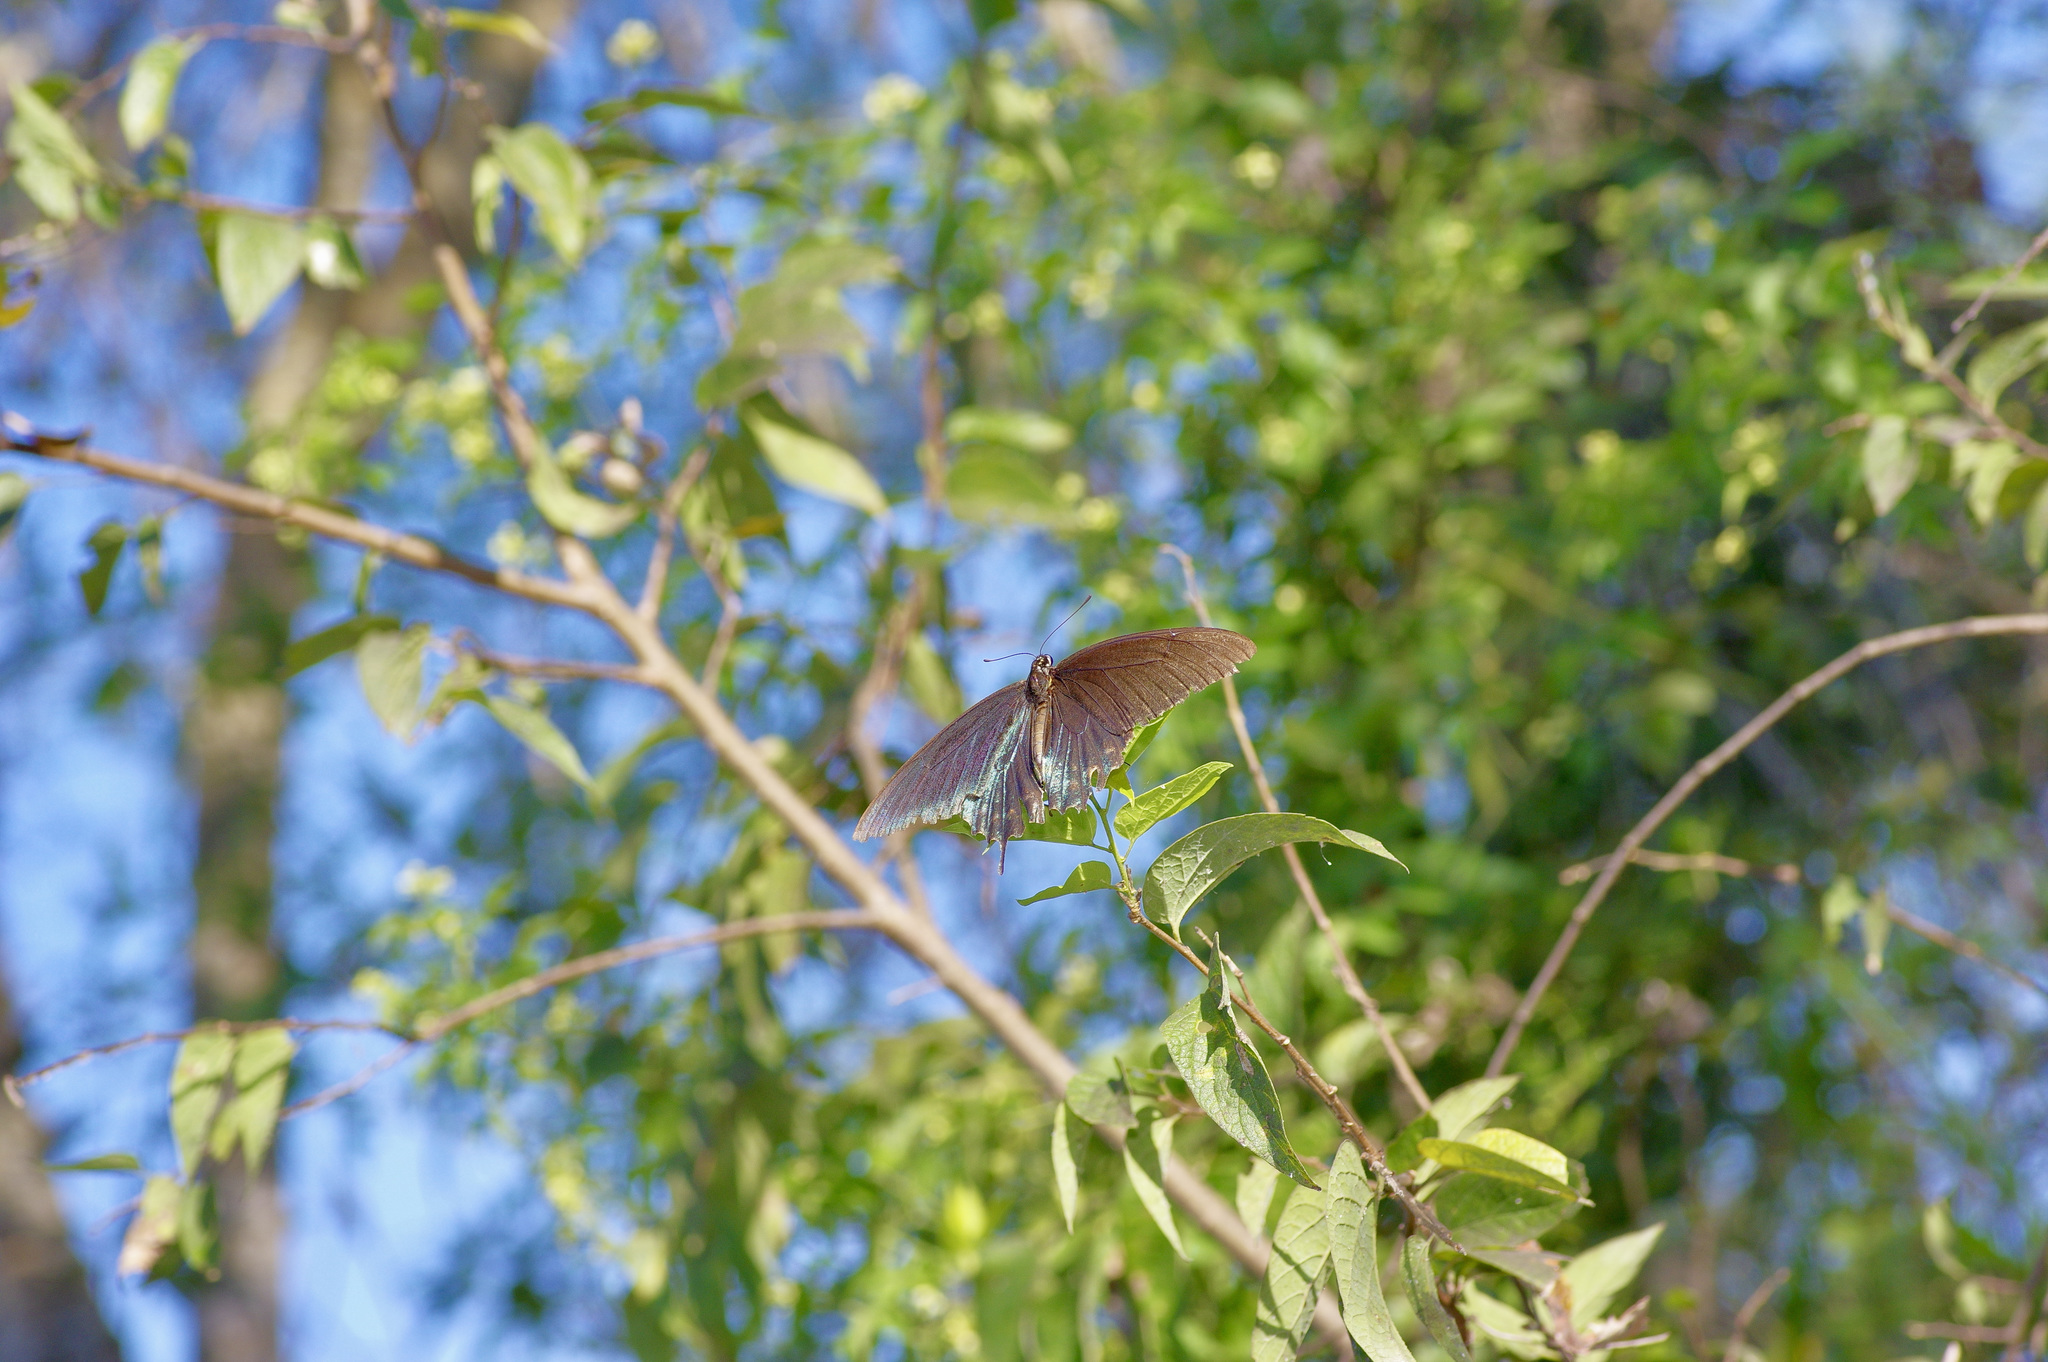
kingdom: Animalia
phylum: Arthropoda
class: Insecta
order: Lepidoptera
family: Papilionidae
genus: Battus
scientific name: Battus philenor
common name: Pipevine swallowtail
